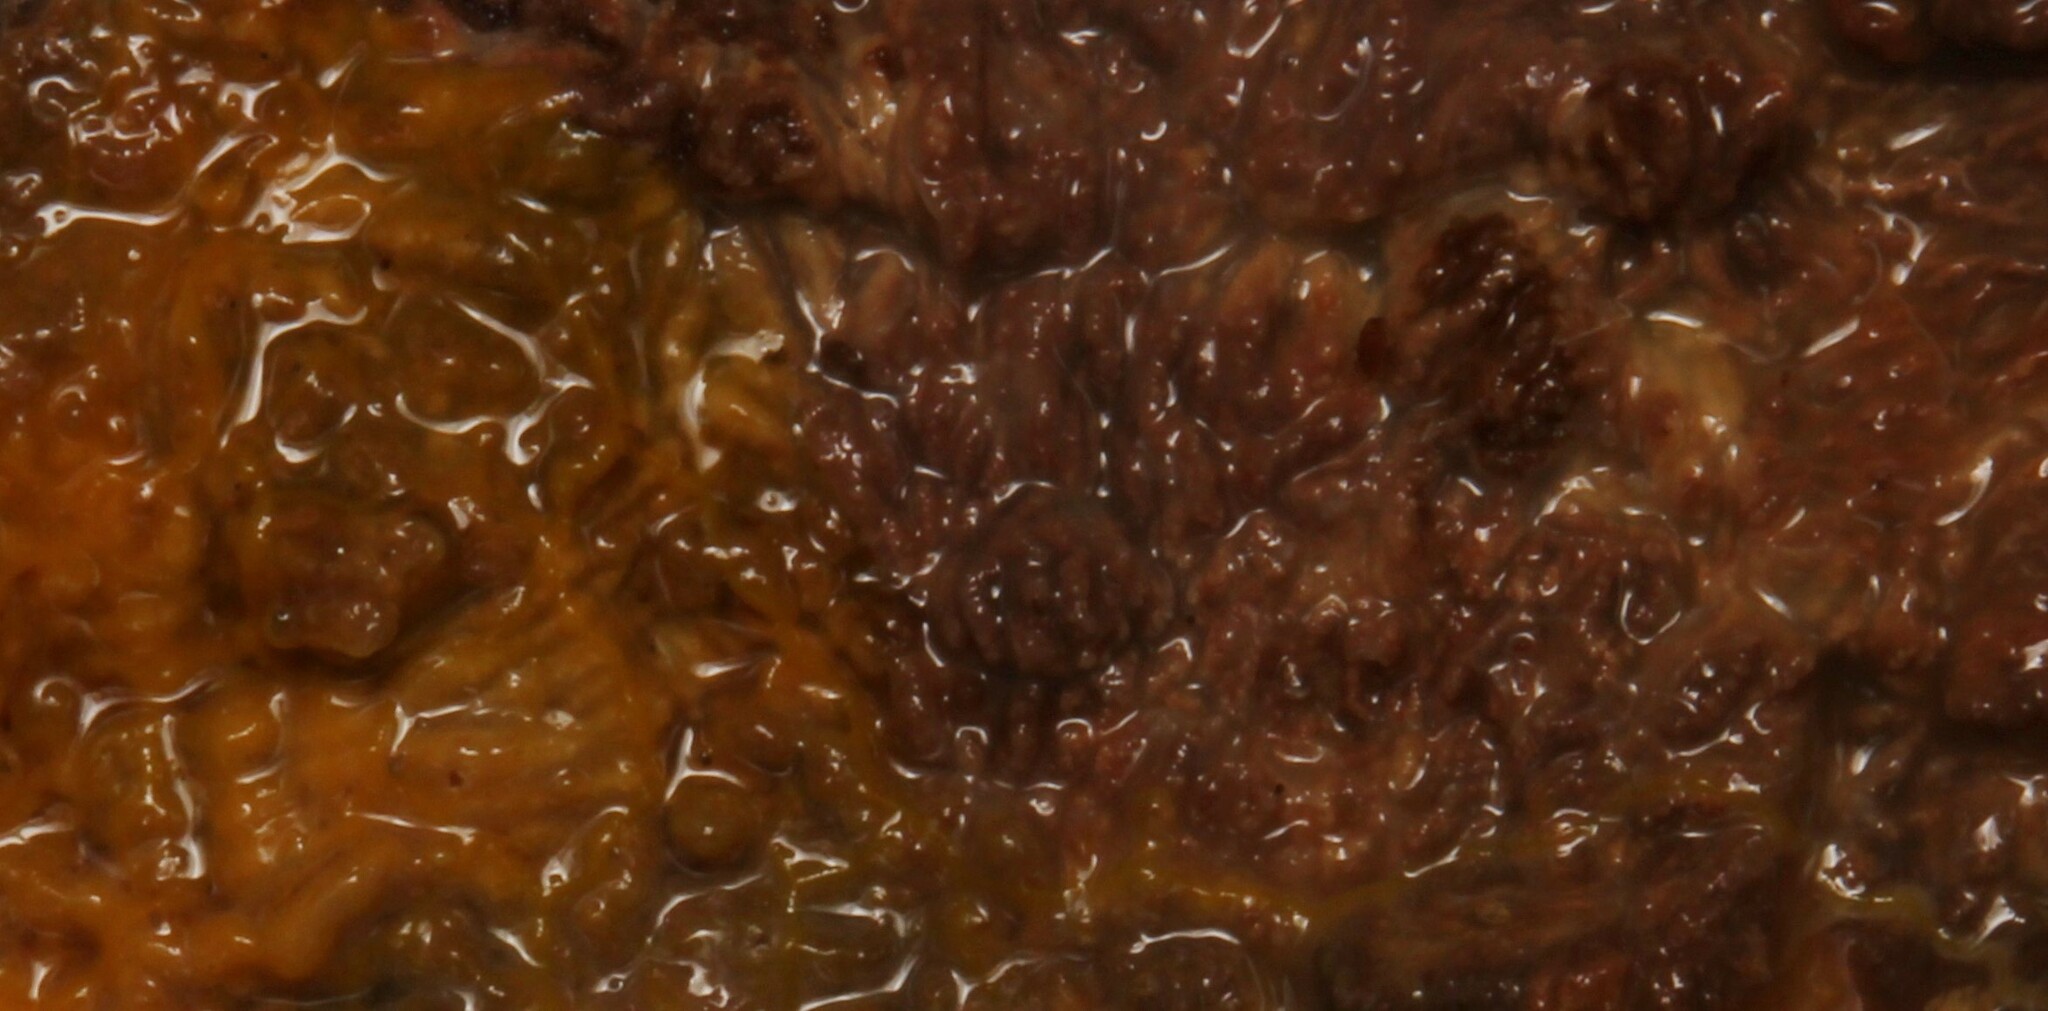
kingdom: Protozoa
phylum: Mycetozoa
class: Myxomycetes
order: Physarales
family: Physaraceae
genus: Badhamia
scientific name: Badhamia utricularis
